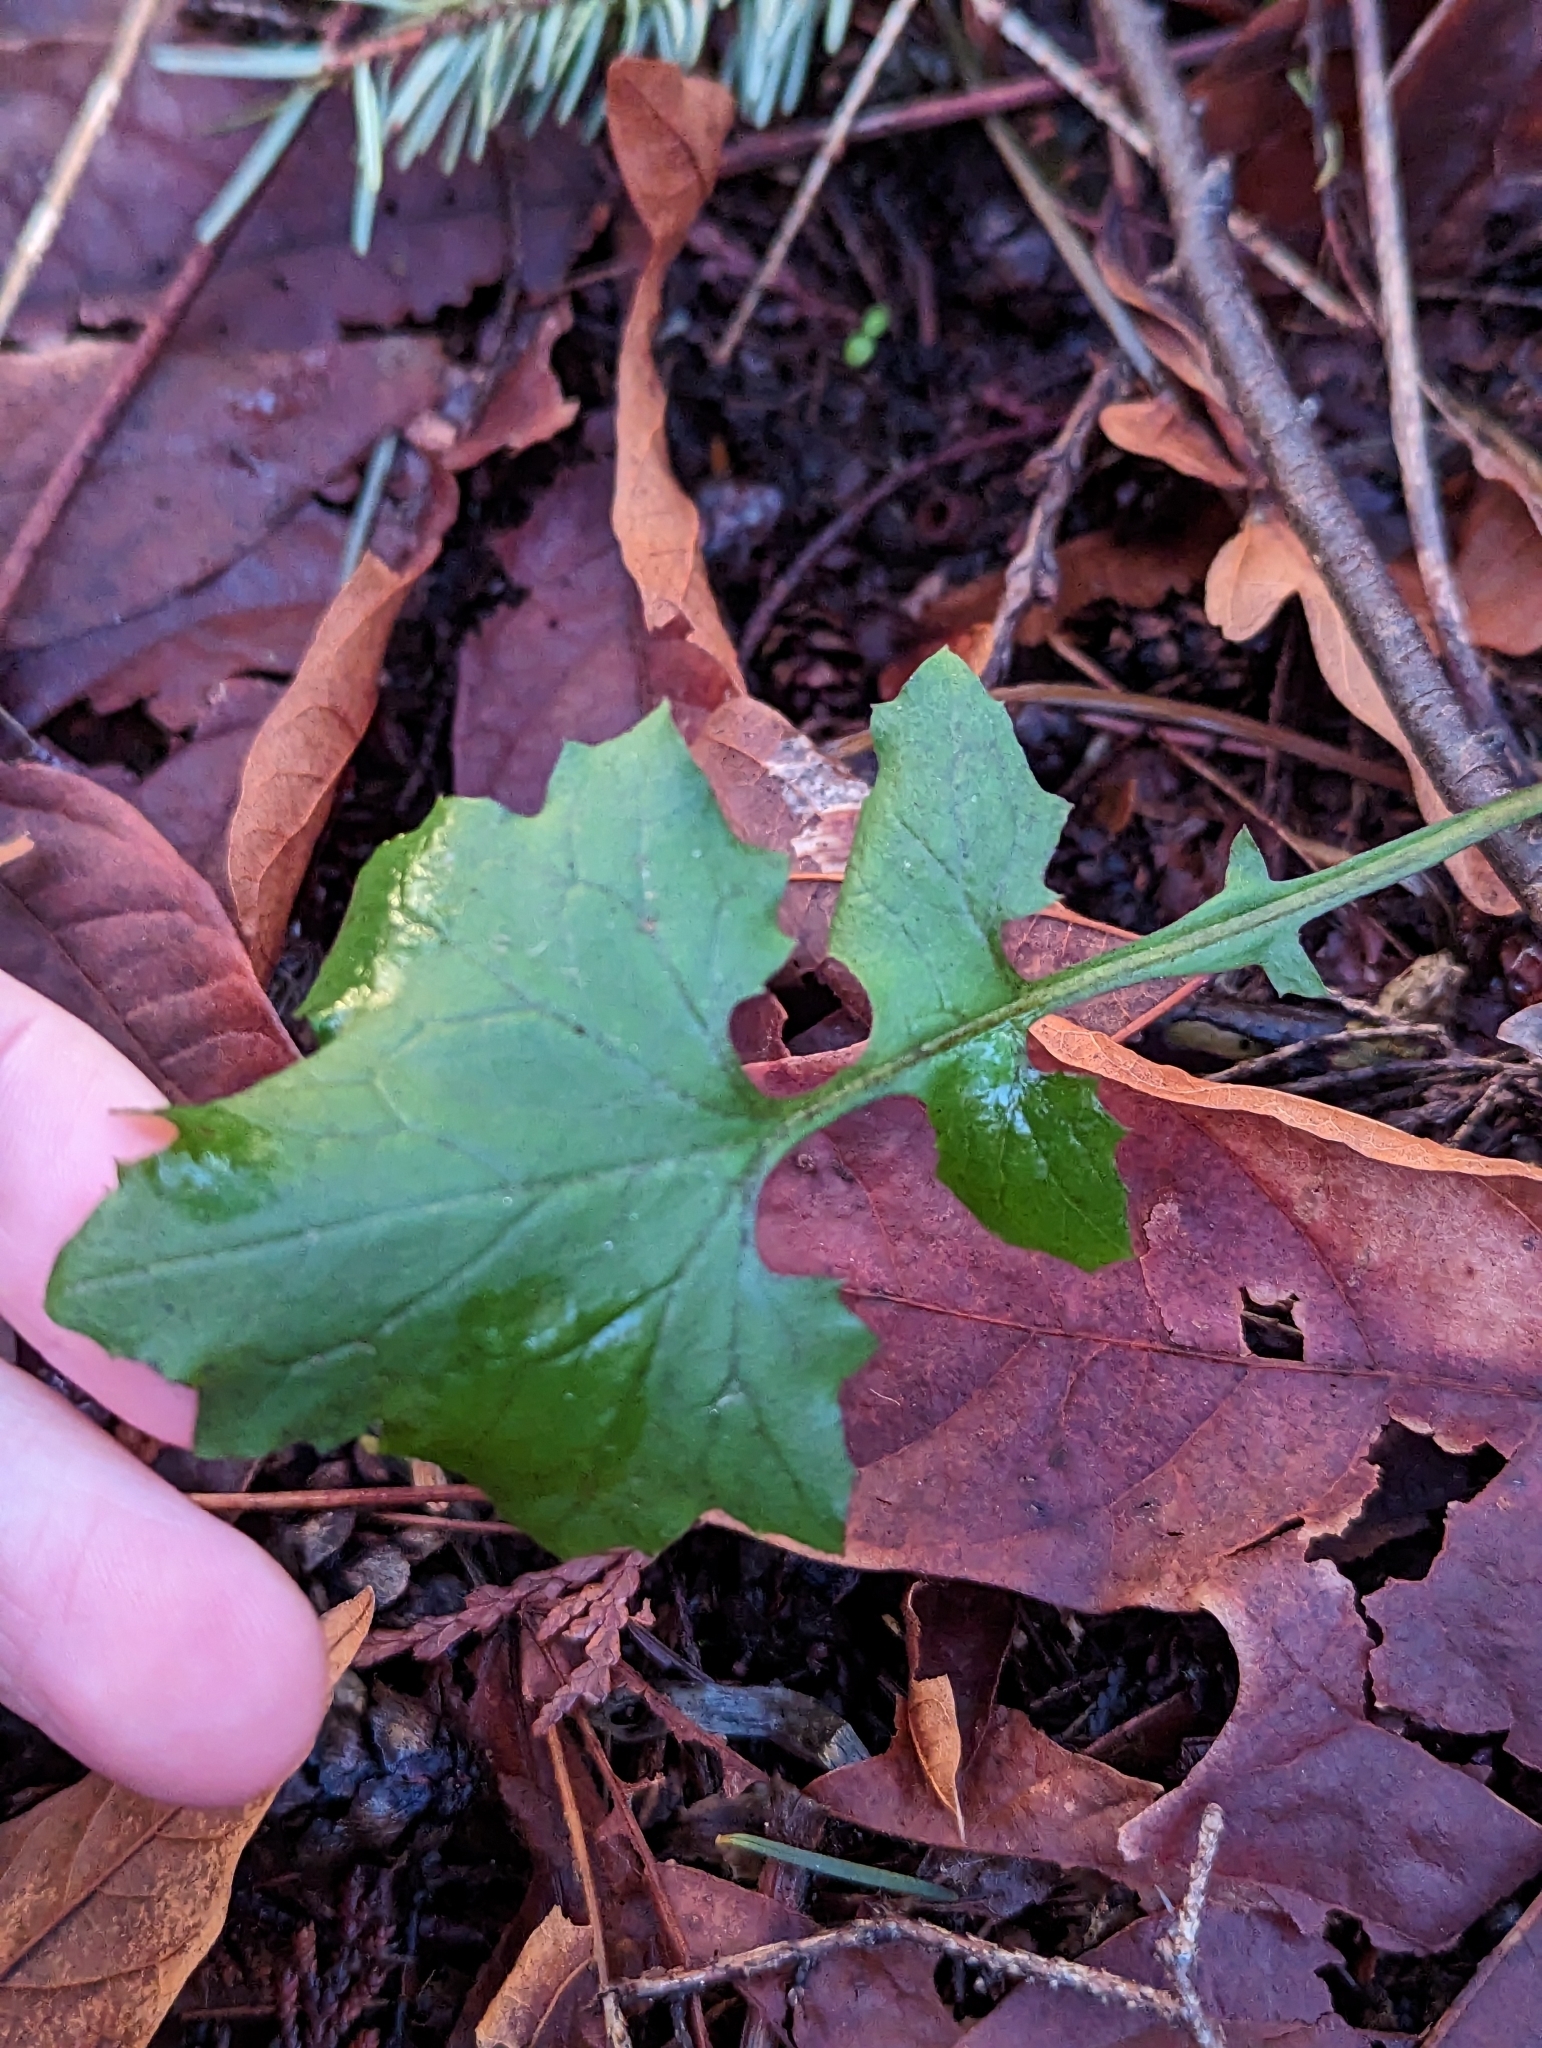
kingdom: Plantae
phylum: Tracheophyta
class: Magnoliopsida
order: Asterales
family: Asteraceae
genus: Mycelis
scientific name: Mycelis muralis
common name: Wall lettuce
